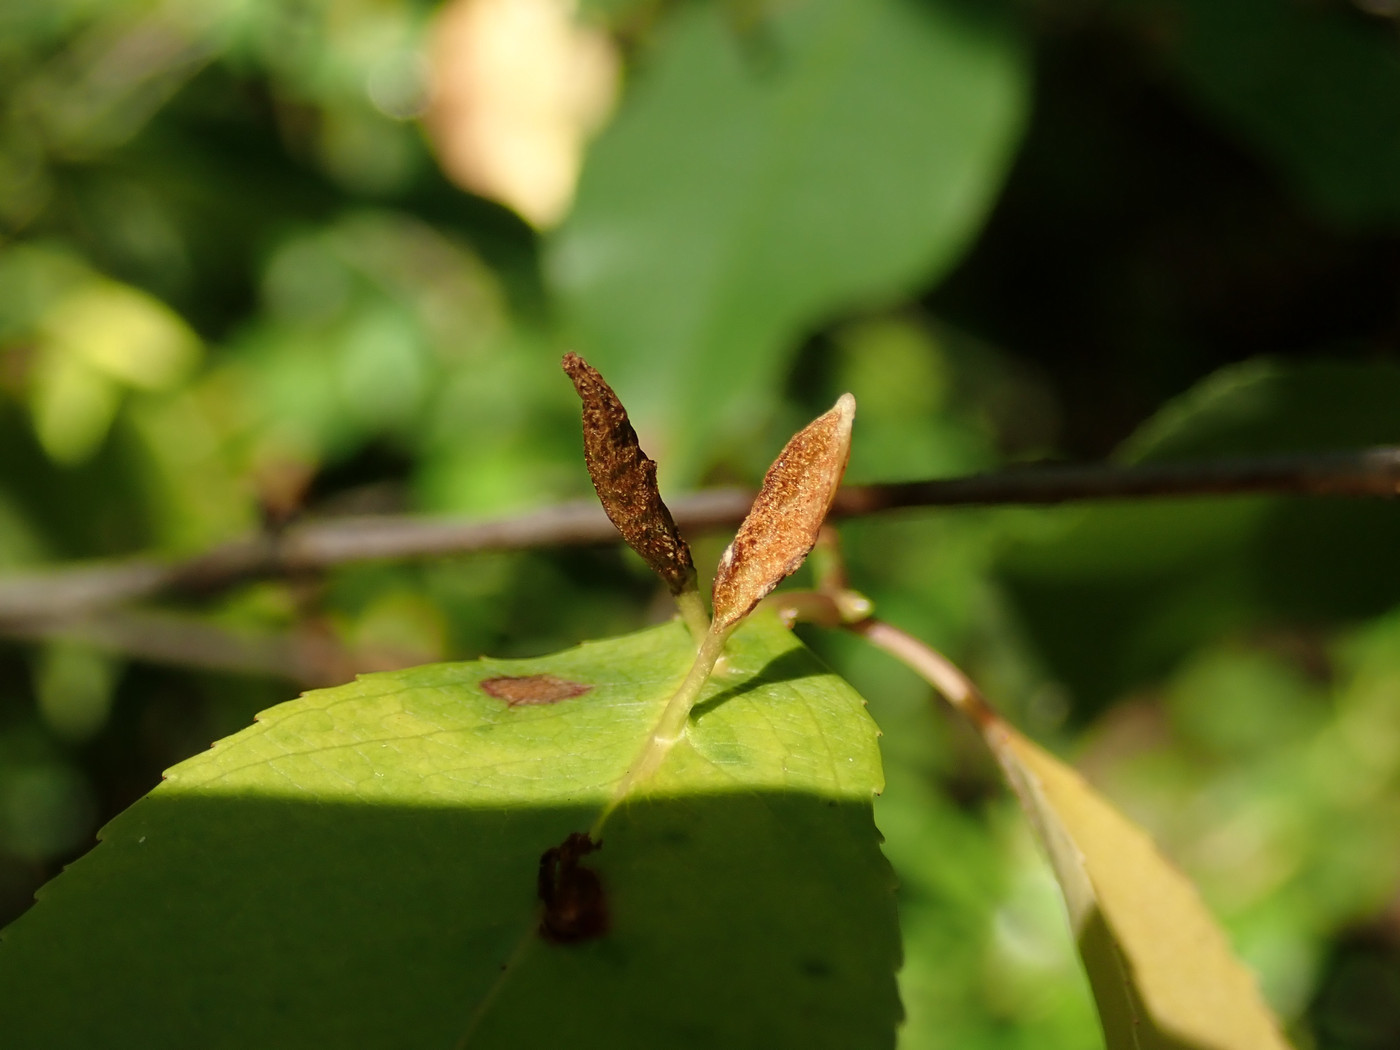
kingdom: Animalia
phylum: Arthropoda
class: Arachnida
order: Trombidiformes
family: Eriophyidae
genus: Eriophyes
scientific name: Eriophyes
